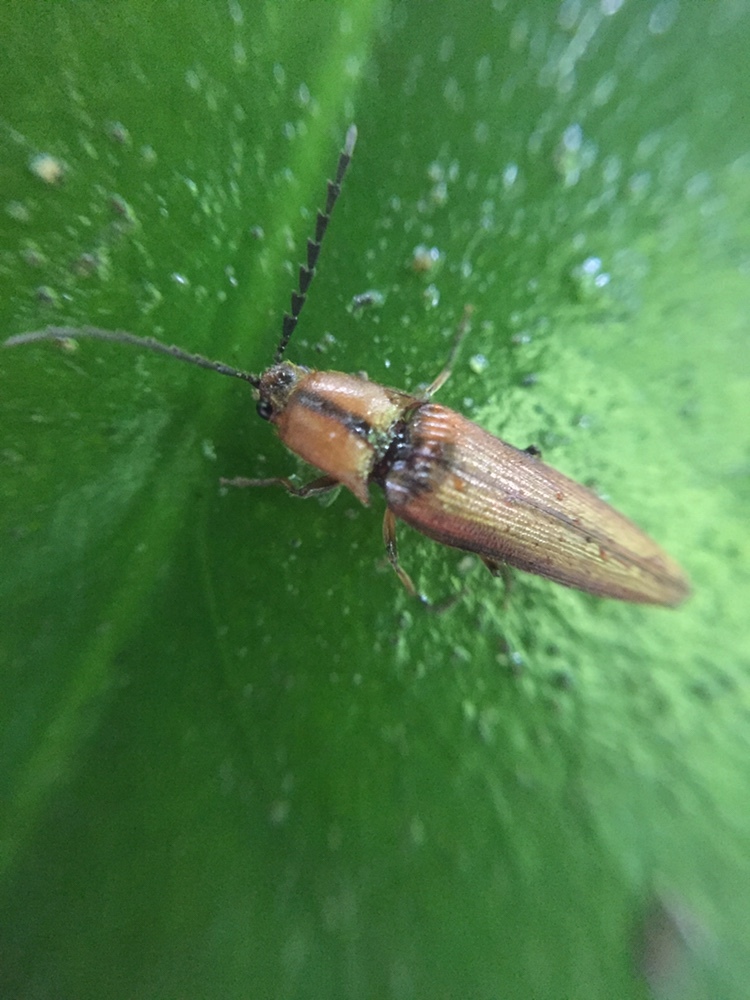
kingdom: Animalia
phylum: Arthropoda
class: Insecta
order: Coleoptera
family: Elateridae
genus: Sphaenelater
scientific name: Sphaenelater
